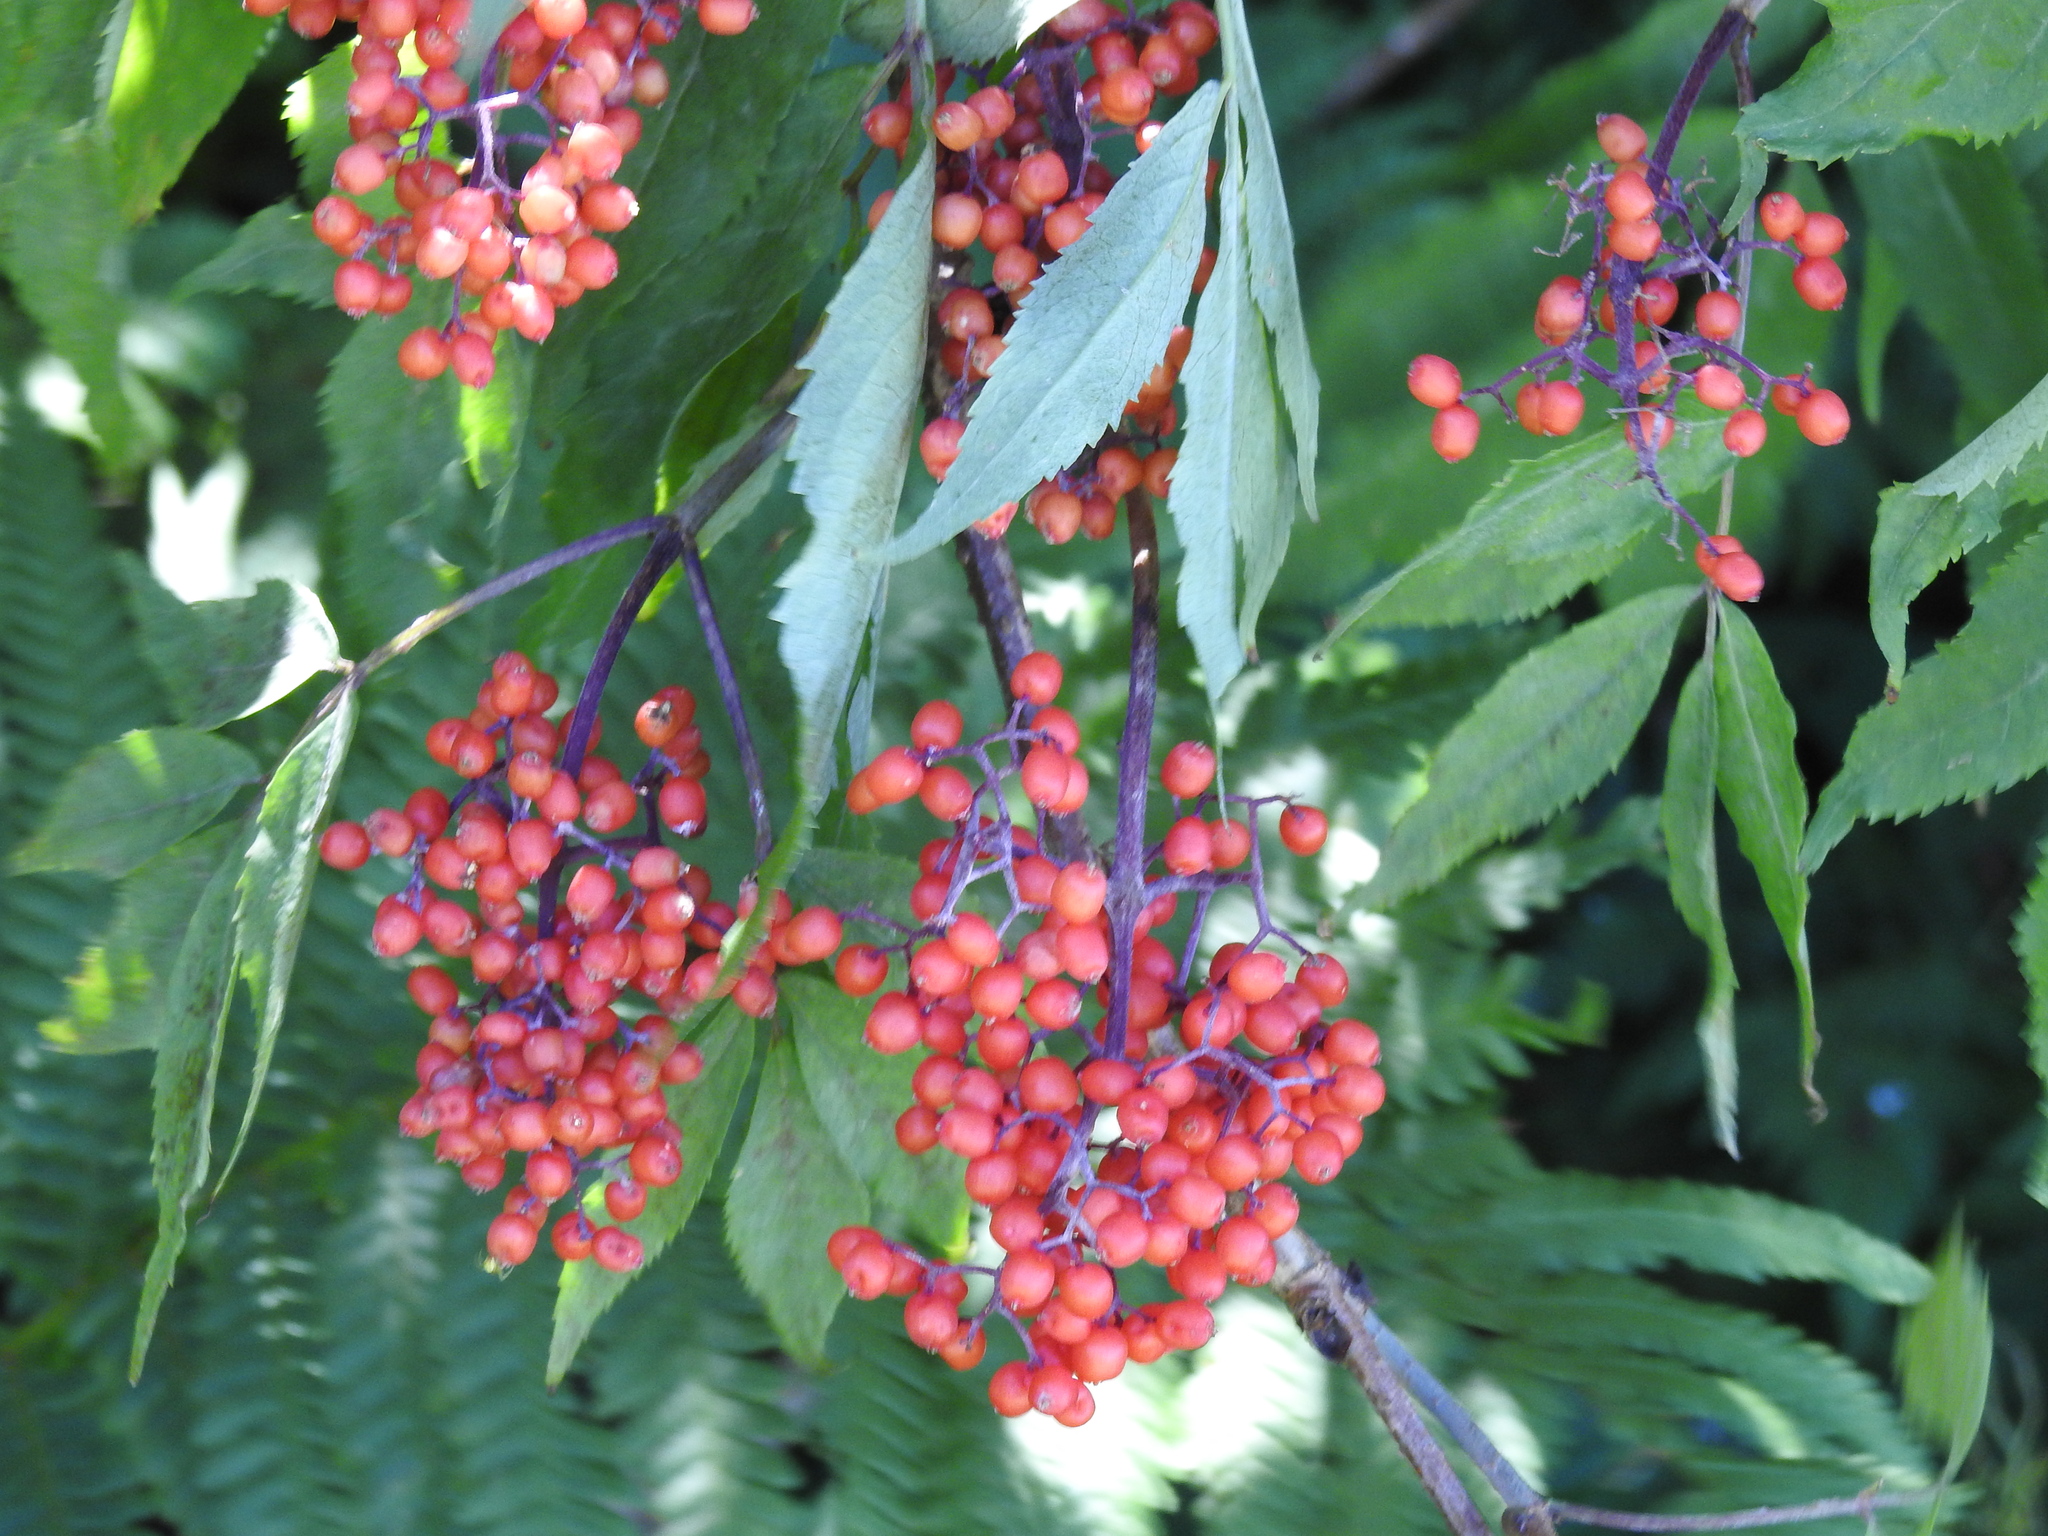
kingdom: Plantae
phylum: Tracheophyta
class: Magnoliopsida
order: Dipsacales
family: Viburnaceae
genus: Sambucus
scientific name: Sambucus racemosa
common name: Red-berried elder
